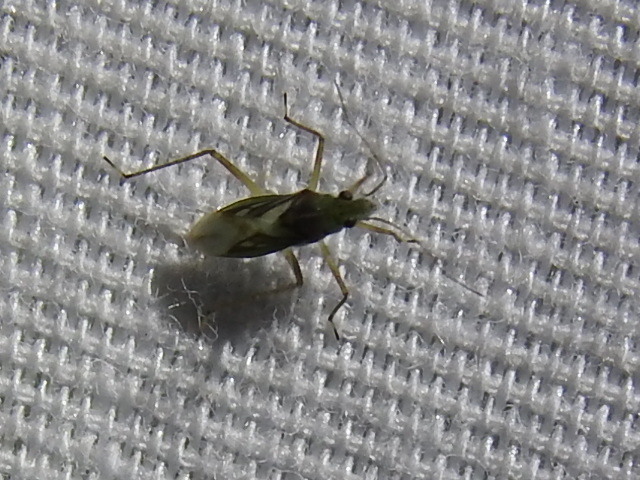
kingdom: Animalia
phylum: Arthropoda
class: Insecta
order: Hemiptera
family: Mesoveliidae
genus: Mesovelia
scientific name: Mesovelia mulsanti
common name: Water treaders
